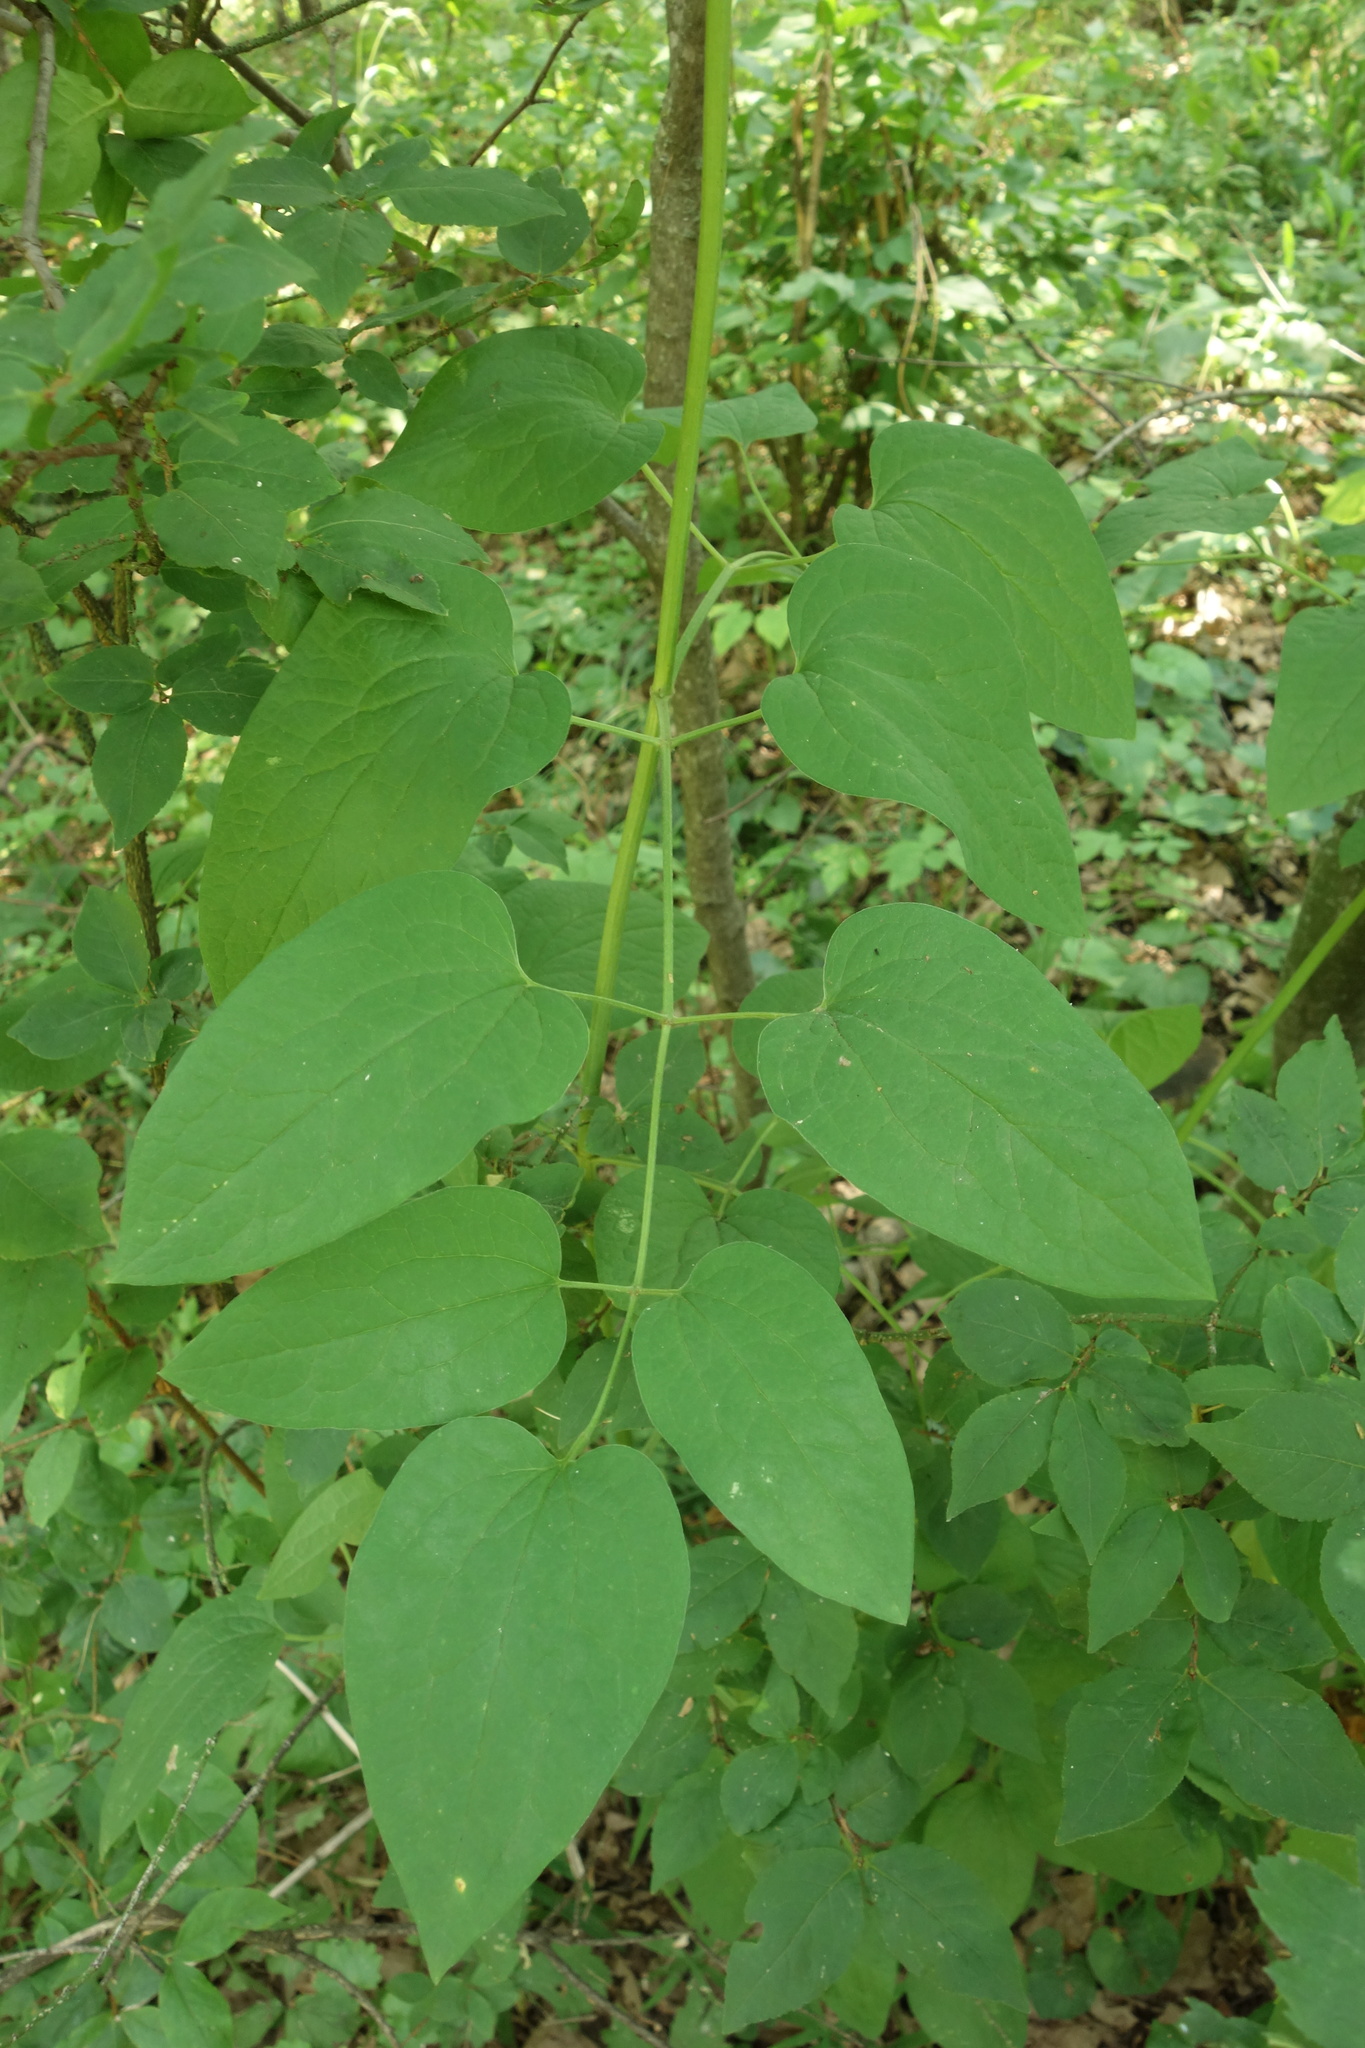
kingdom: Plantae
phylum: Tracheophyta
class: Magnoliopsida
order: Ranunculales
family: Ranunculaceae
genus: Clematis
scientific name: Clematis recta
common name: Ground clematis
